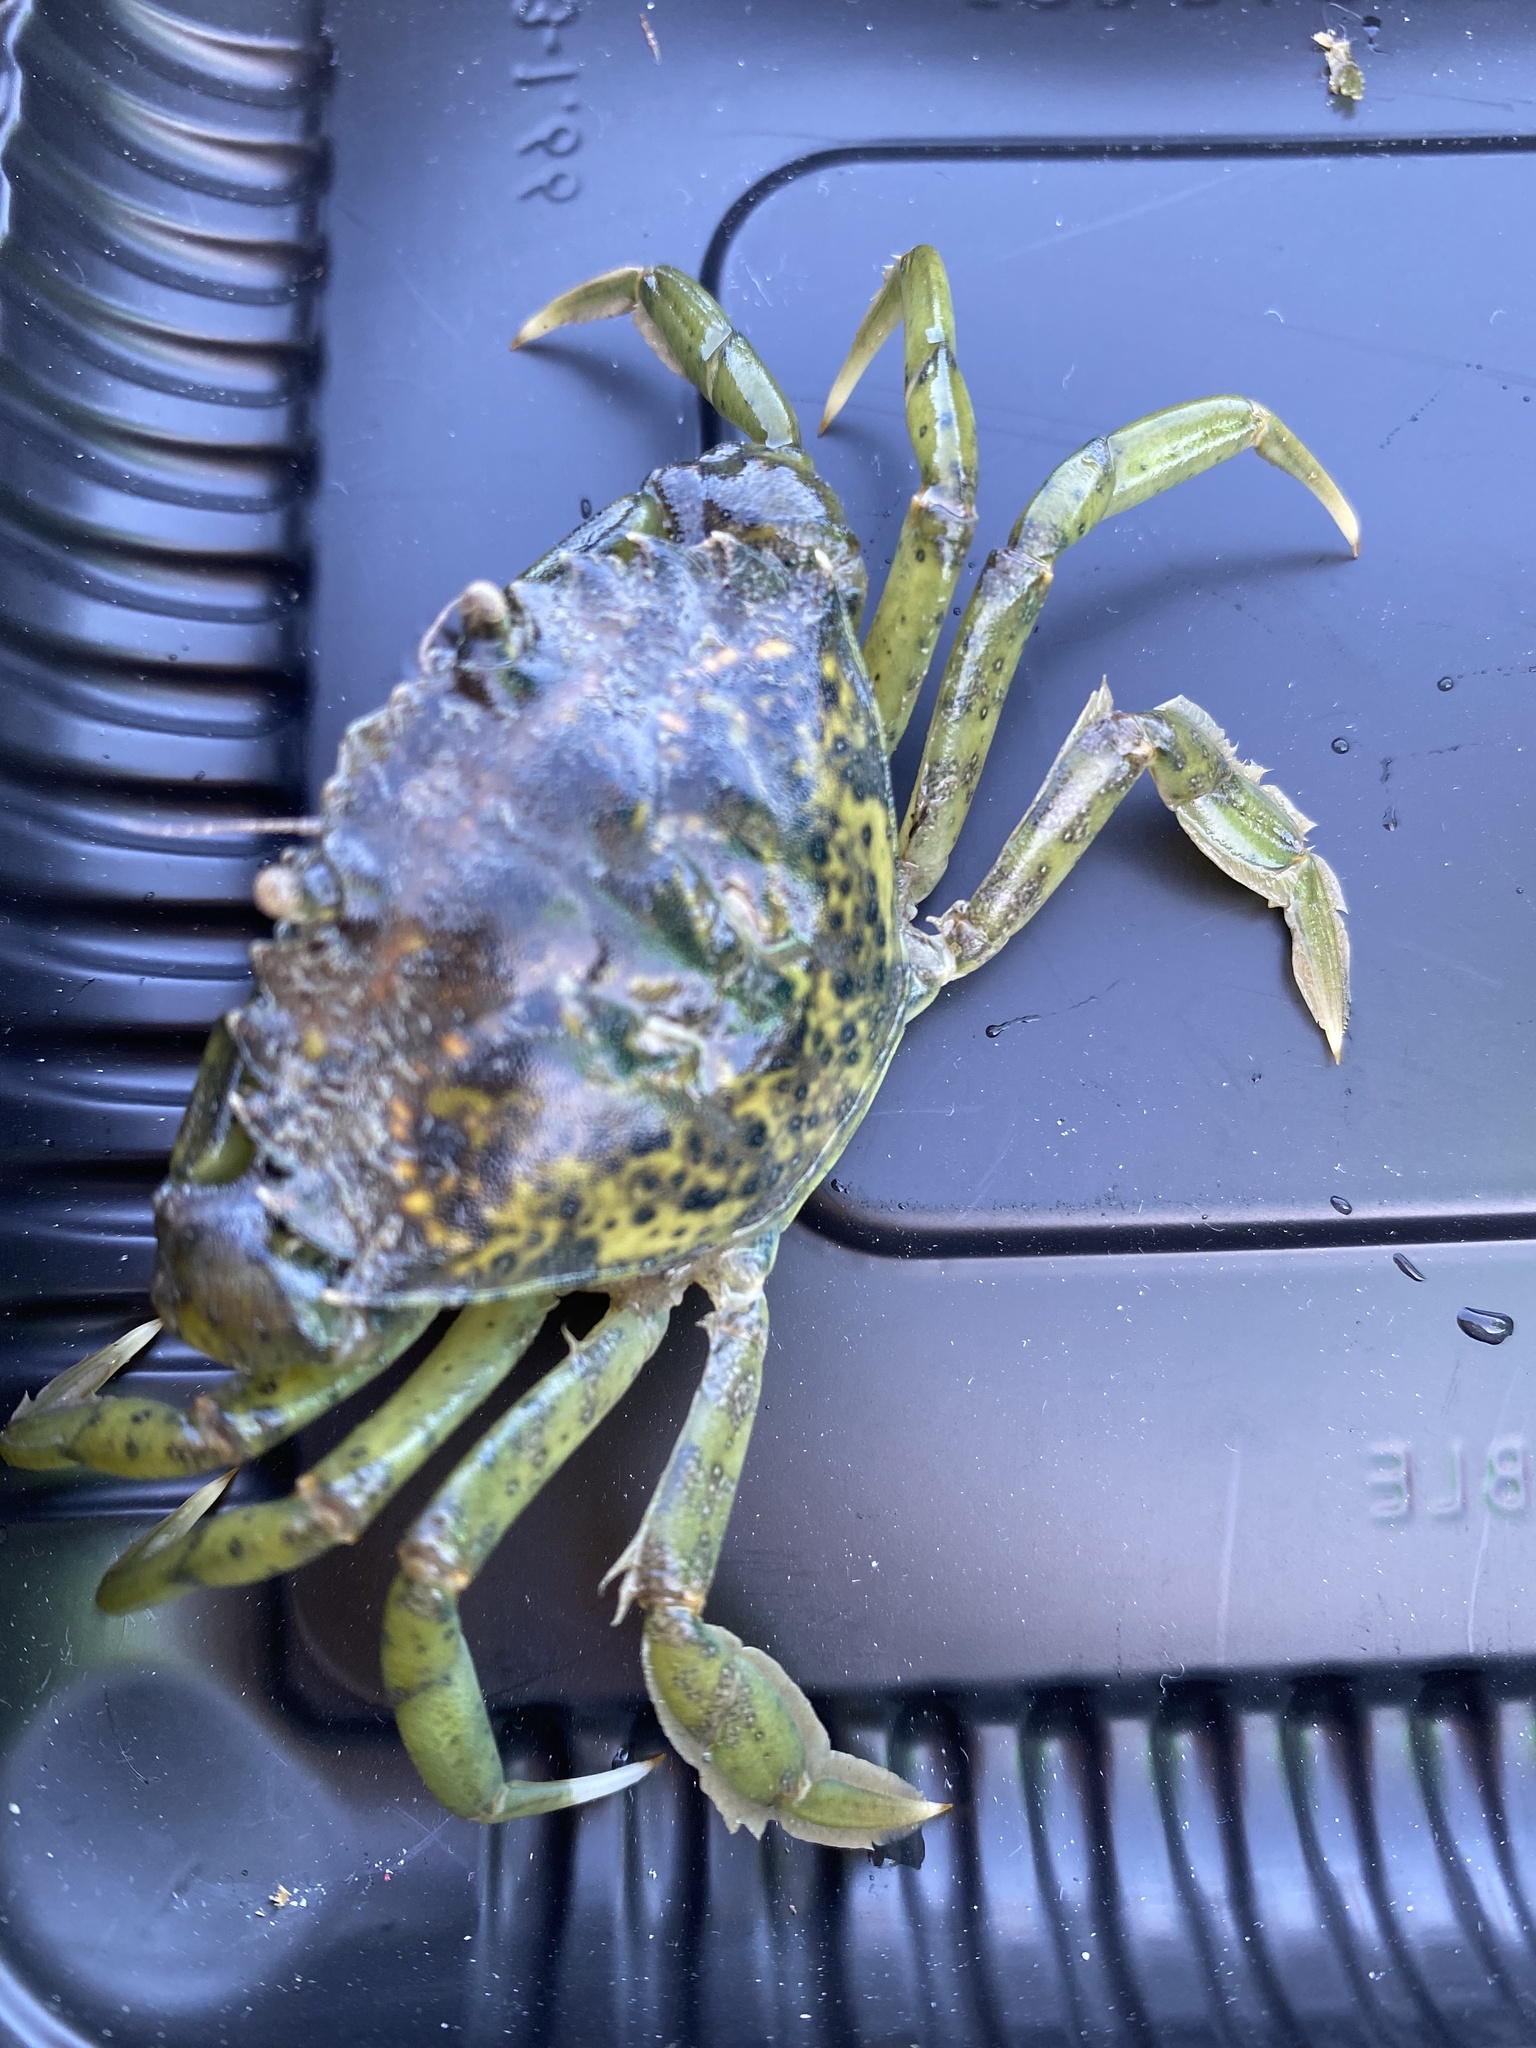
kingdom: Animalia
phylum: Arthropoda
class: Malacostraca
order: Decapoda
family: Carcinidae
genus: Carcinus
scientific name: Carcinus maenas
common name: European green crab
